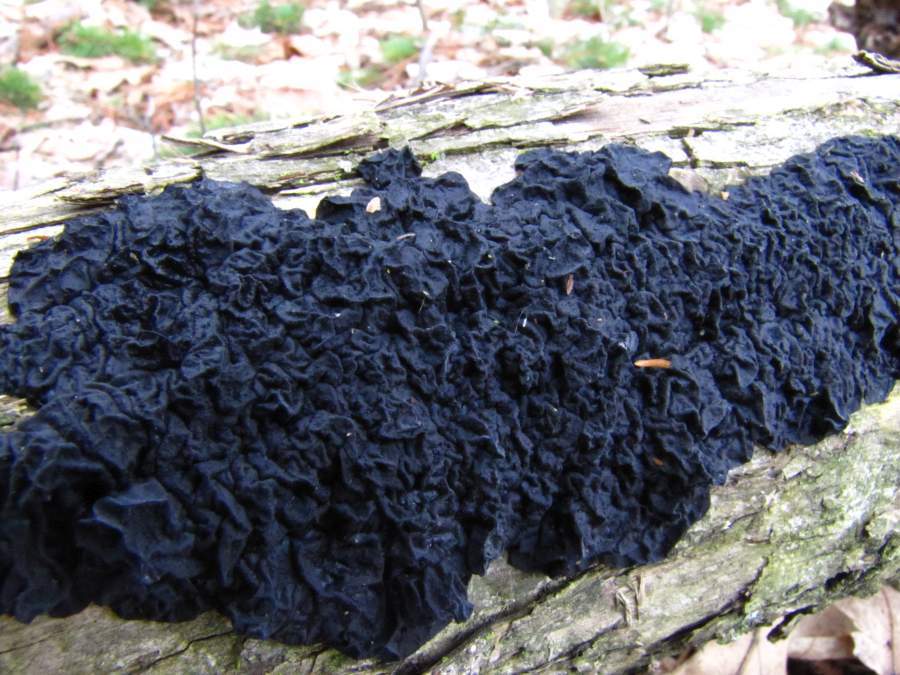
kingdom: Fungi
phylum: Basidiomycota
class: Agaricomycetes
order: Auriculariales
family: Auriculariaceae
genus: Exidia
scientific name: Exidia glandulosa
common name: Witches' butter
